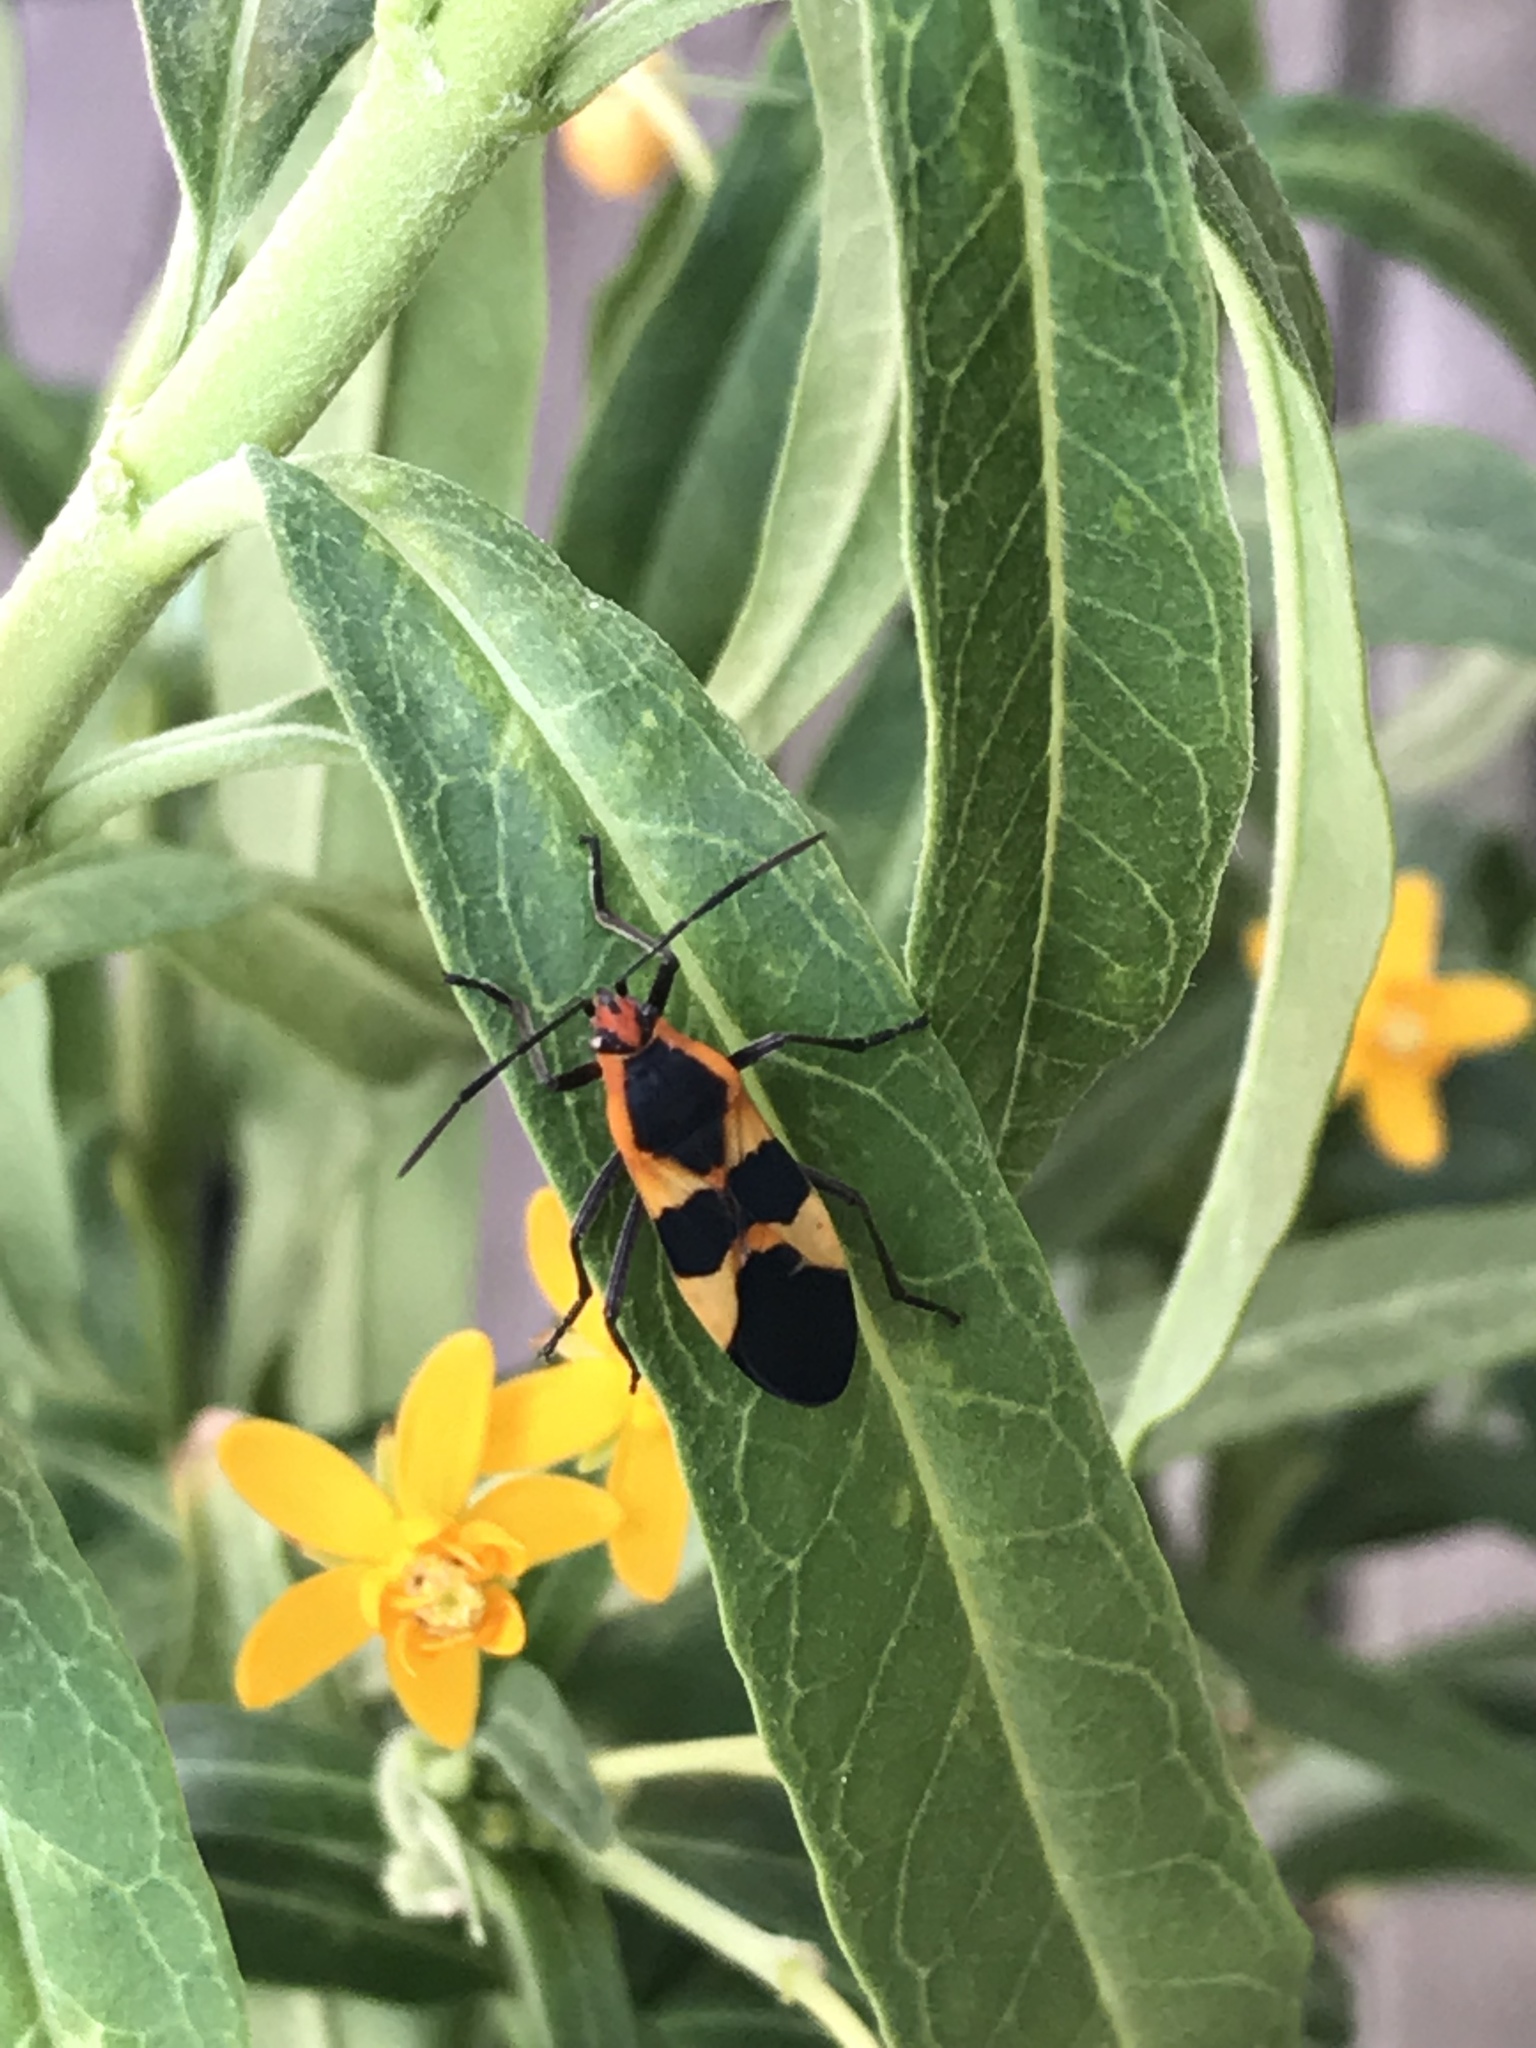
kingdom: Animalia
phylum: Arthropoda
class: Insecta
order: Hemiptera
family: Lygaeidae
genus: Oncopeltus
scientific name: Oncopeltus fasciatus
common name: Large milkweed bug
